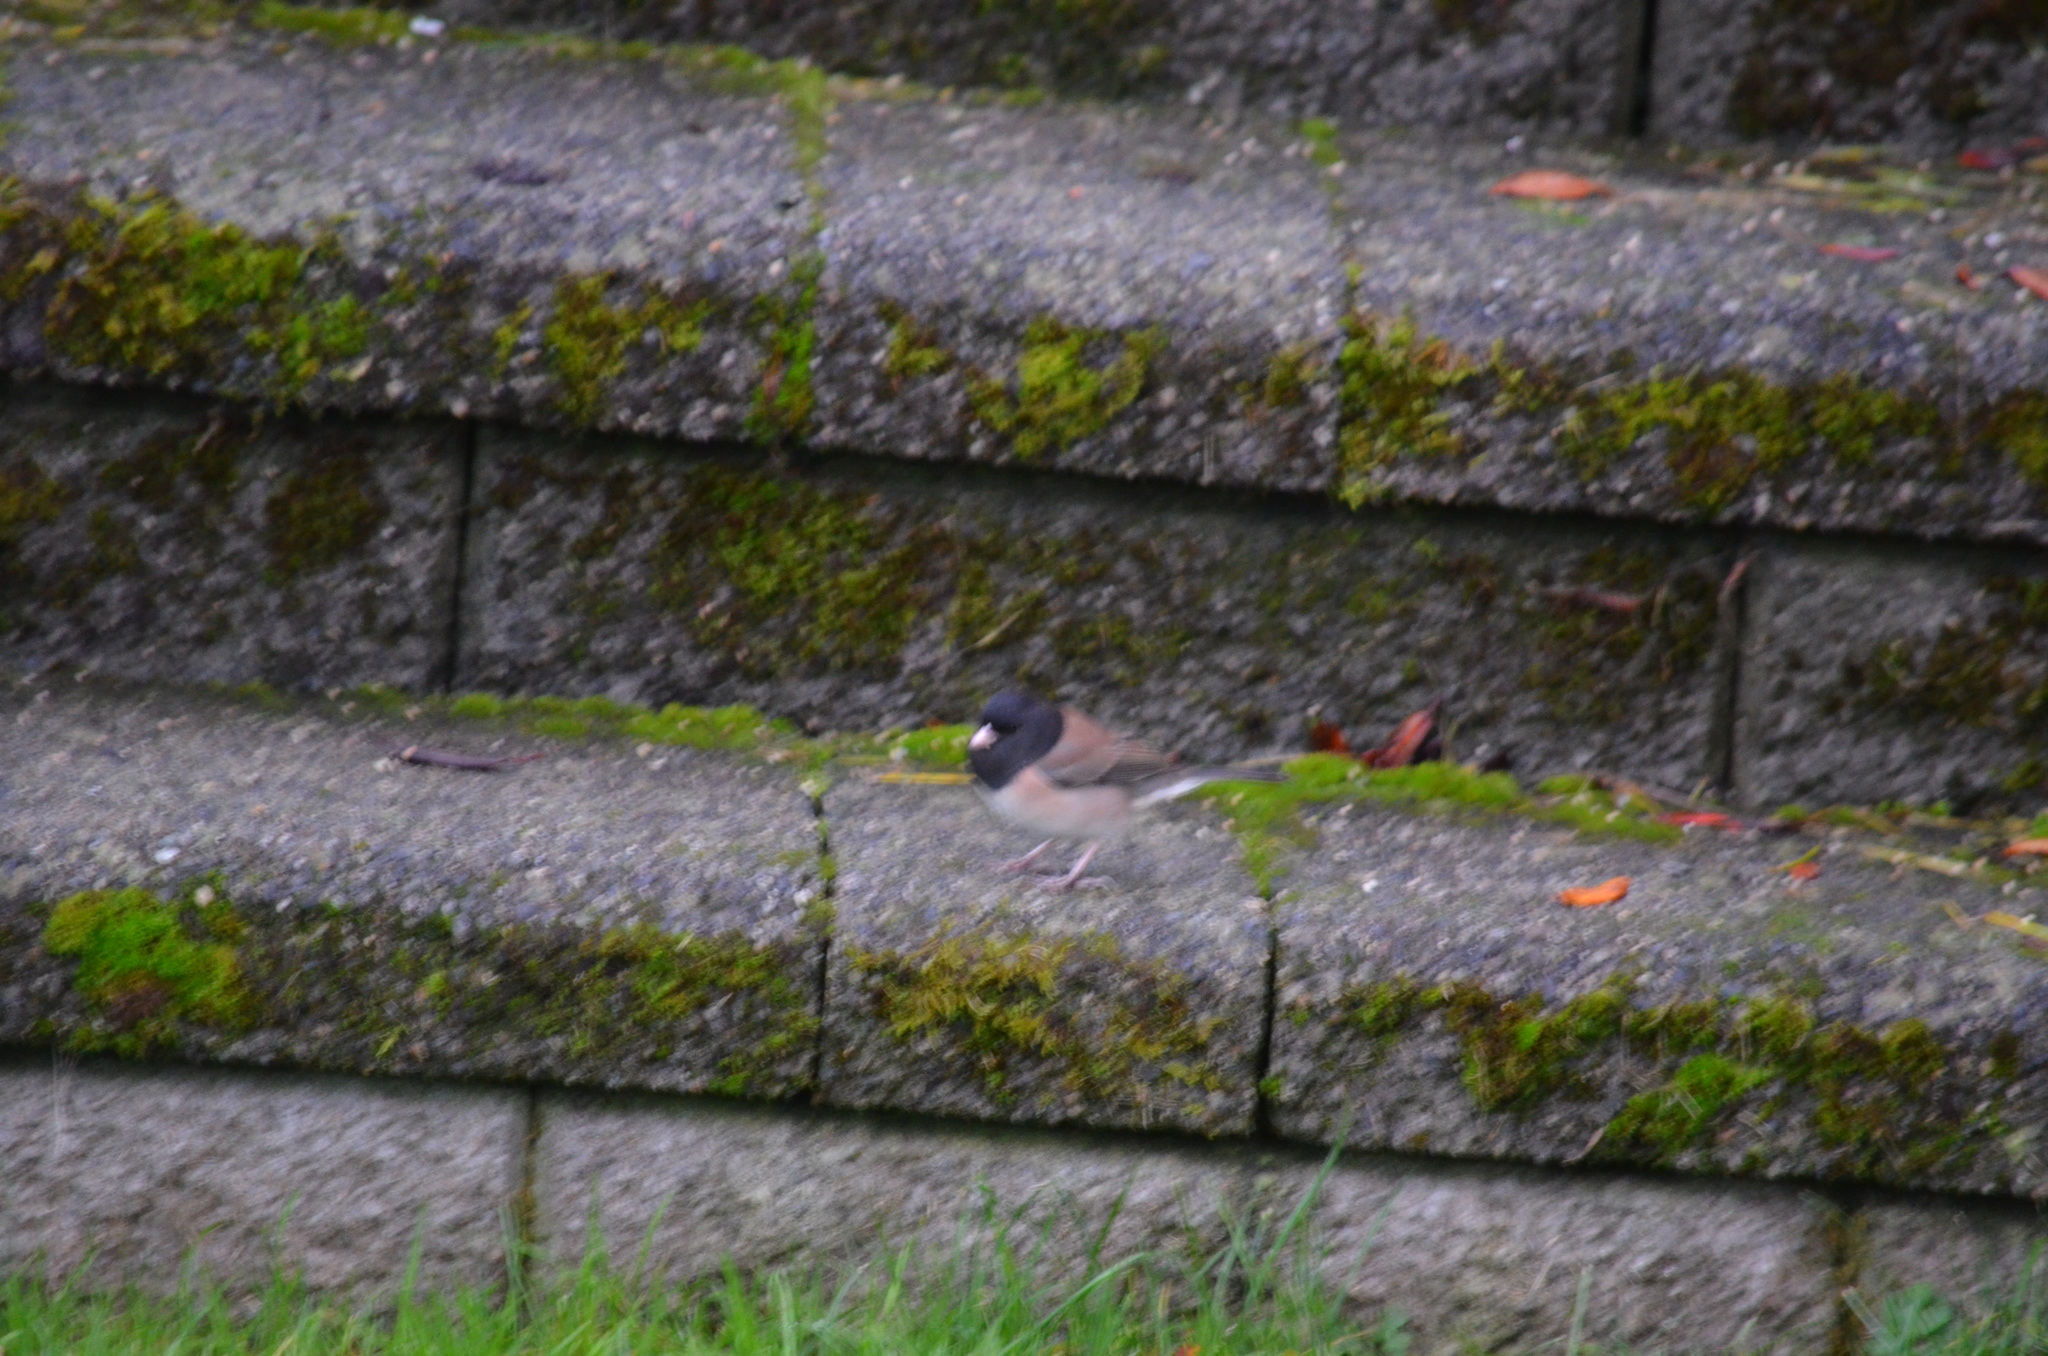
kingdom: Animalia
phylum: Chordata
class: Aves
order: Passeriformes
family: Passerellidae
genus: Junco
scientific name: Junco hyemalis
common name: Dark-eyed junco
